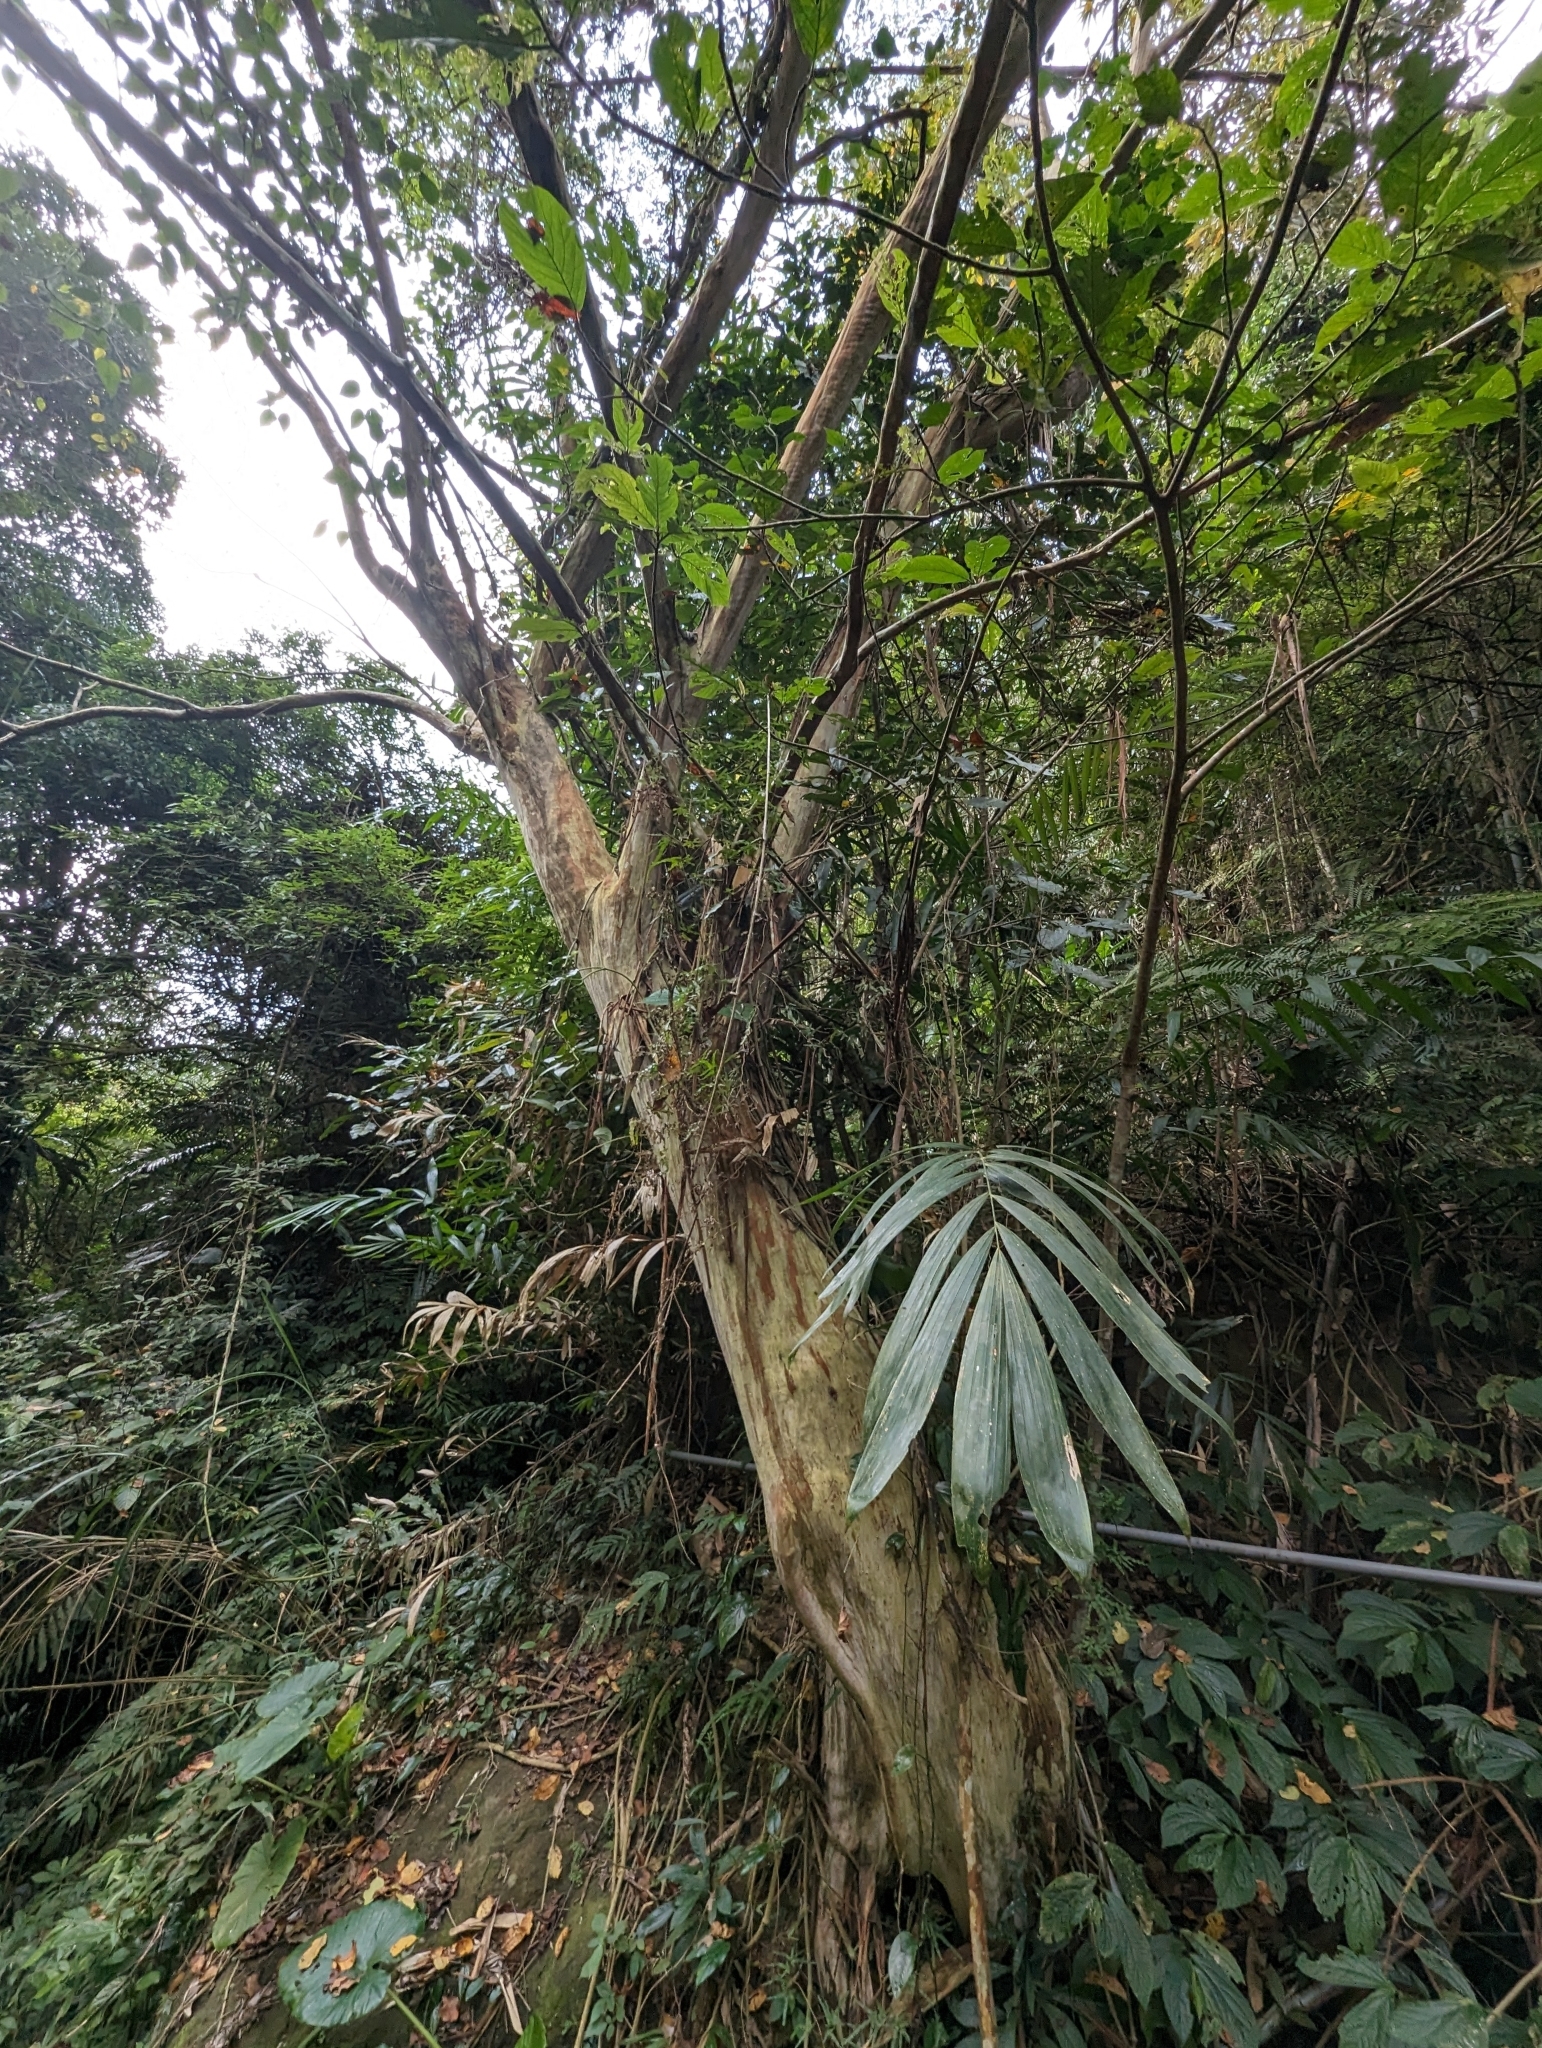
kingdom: Plantae
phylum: Tracheophyta
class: Magnoliopsida
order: Myrtales
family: Lythraceae
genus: Lagerstroemia
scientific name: Lagerstroemia subcostata
